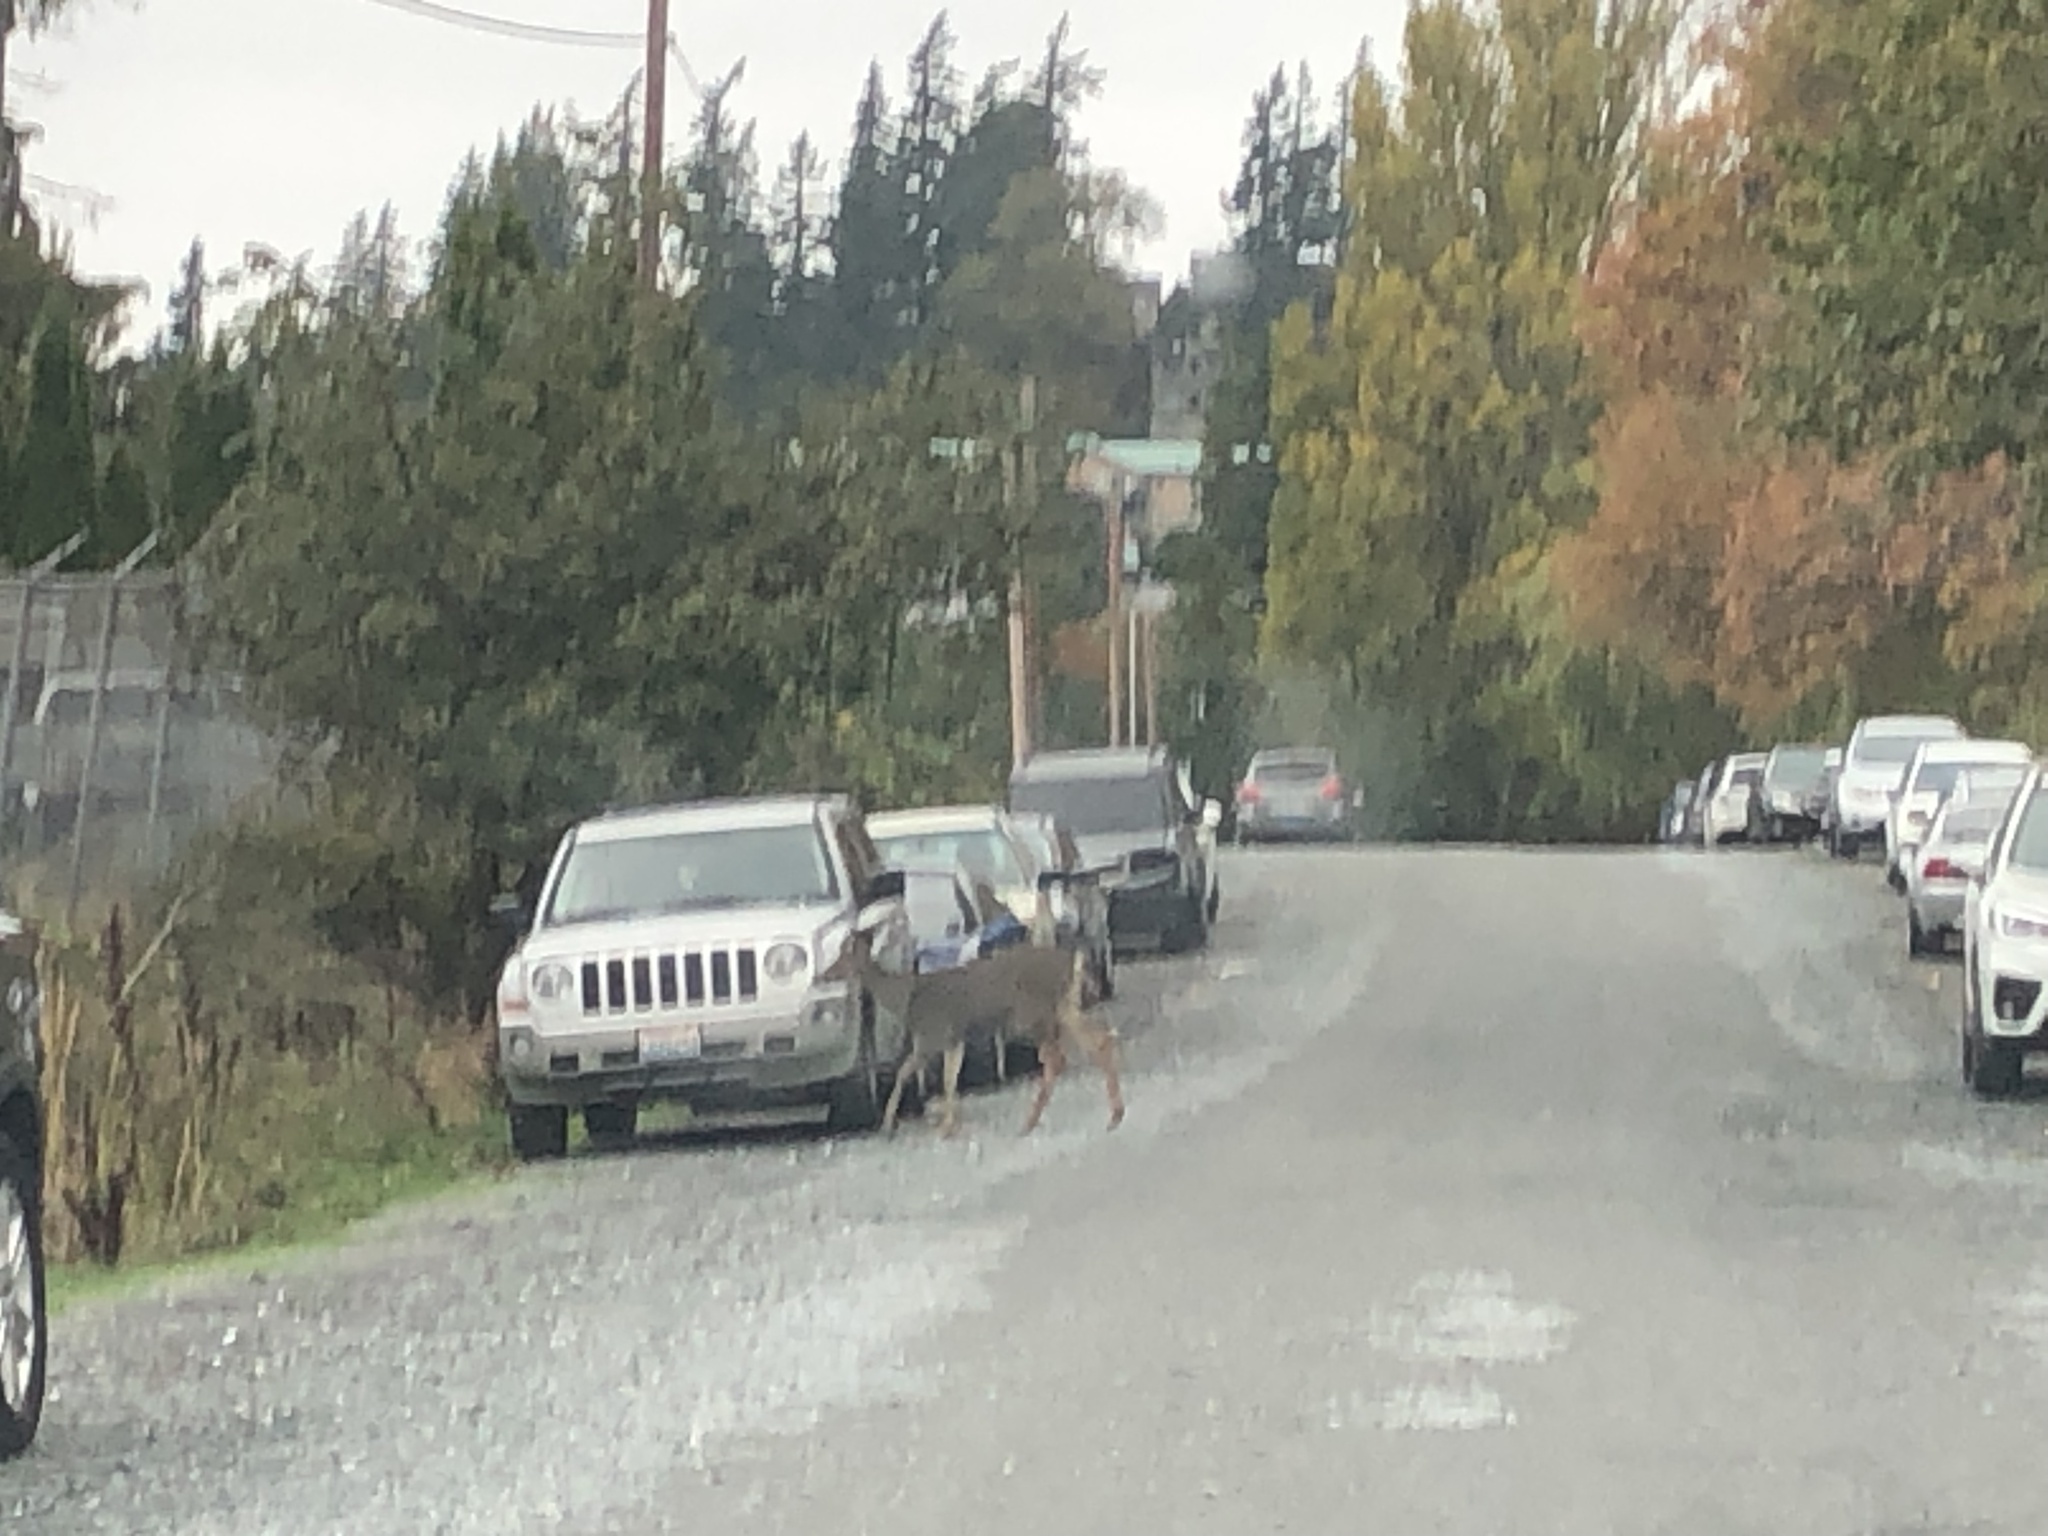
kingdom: Animalia
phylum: Chordata
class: Mammalia
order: Artiodactyla
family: Cervidae
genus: Odocoileus
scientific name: Odocoileus hemionus
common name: Mule deer
